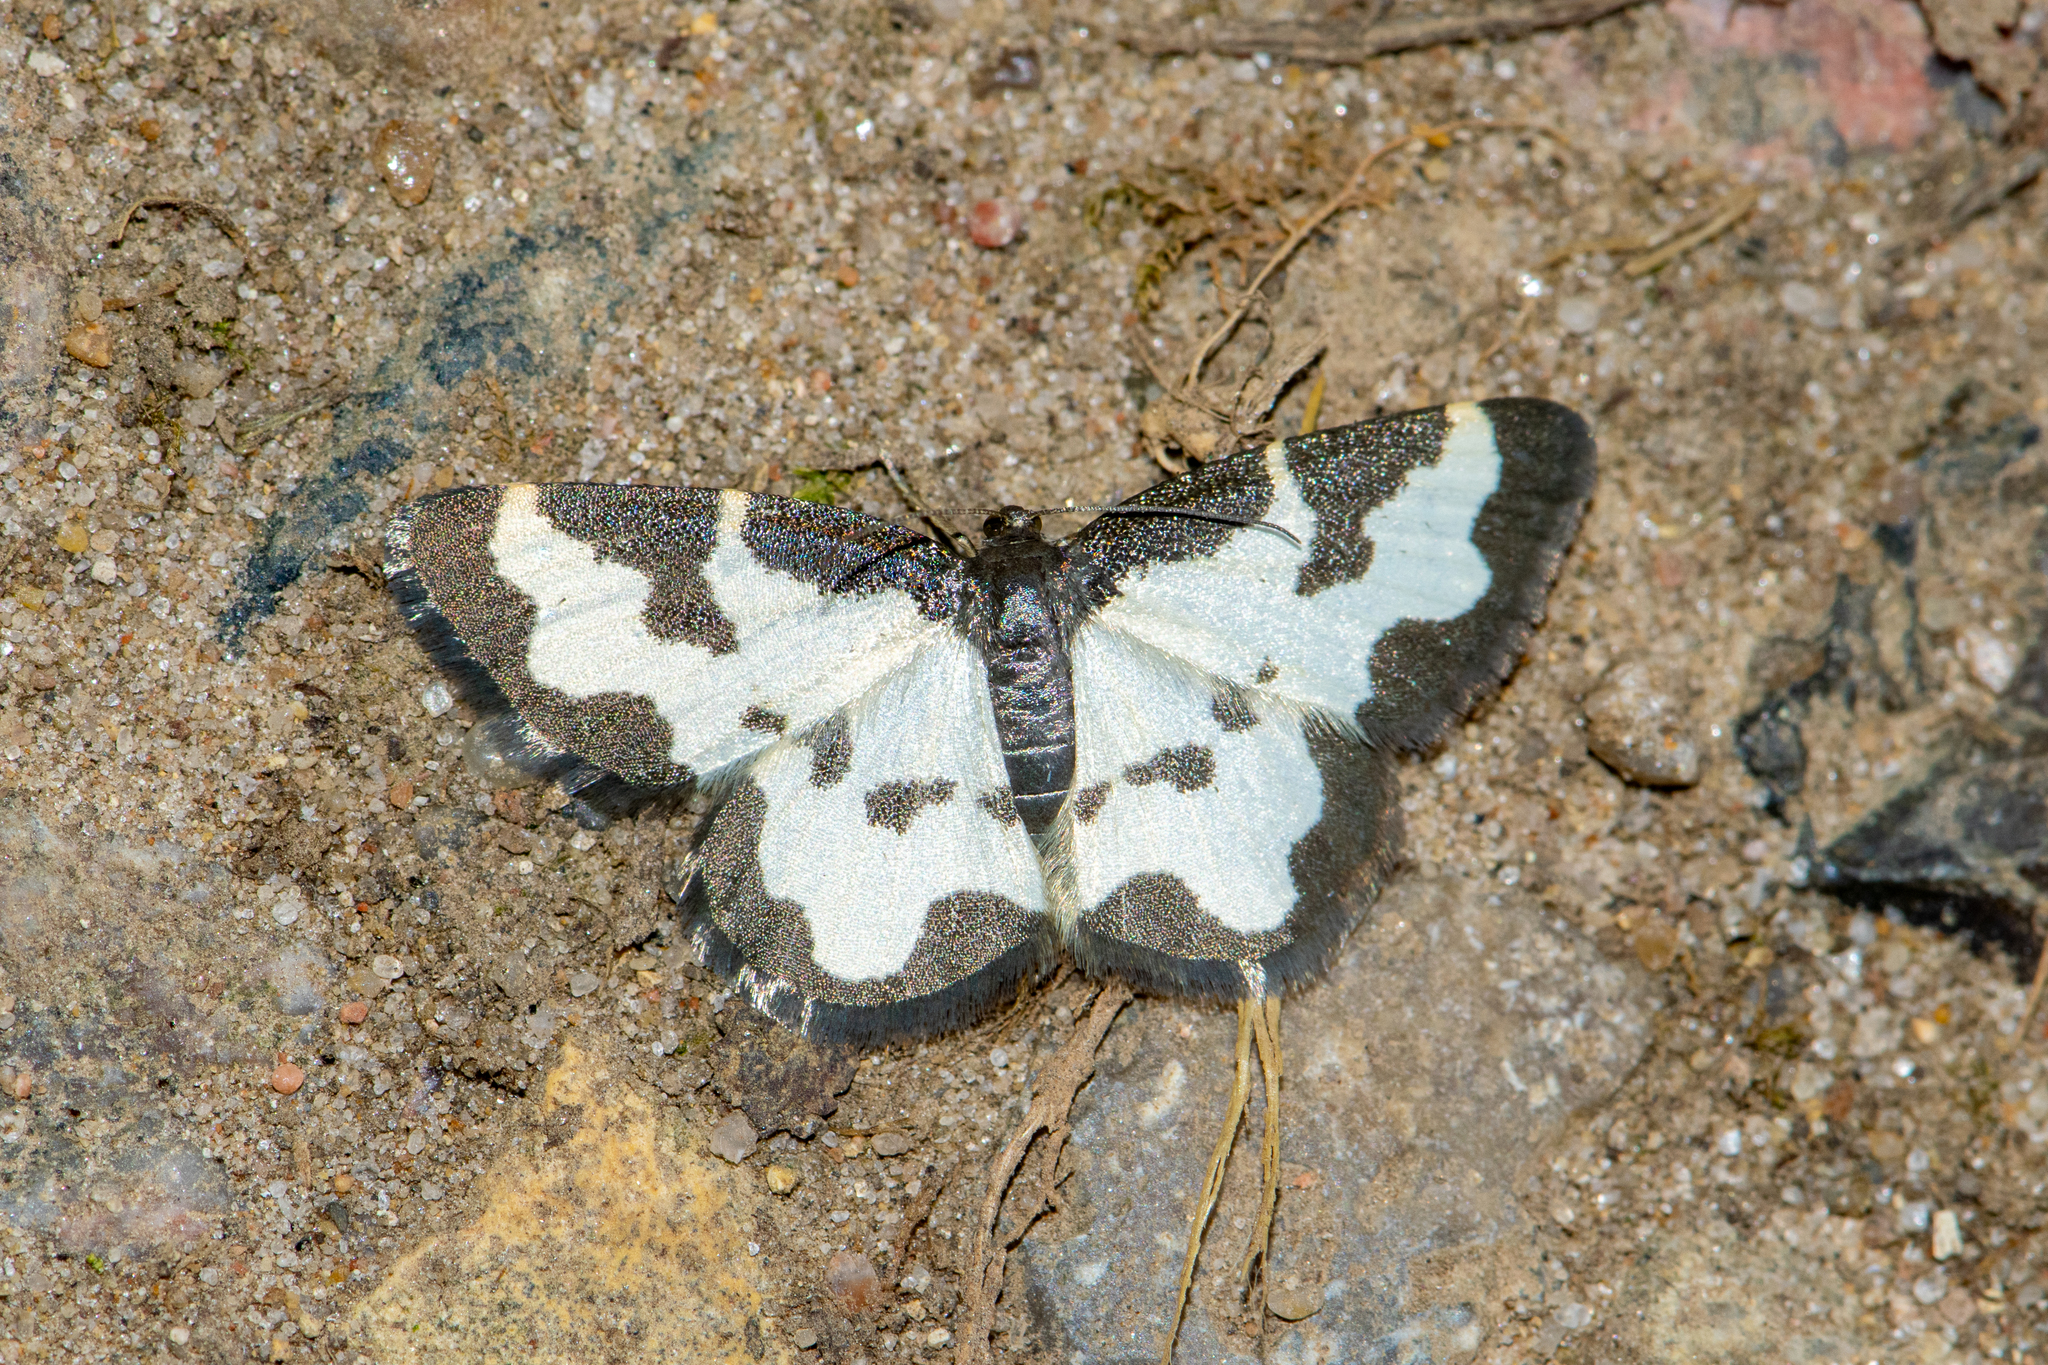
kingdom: Animalia
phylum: Arthropoda
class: Insecta
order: Lepidoptera
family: Geometridae
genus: Lomaspilis
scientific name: Lomaspilis marginata
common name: Clouded border
